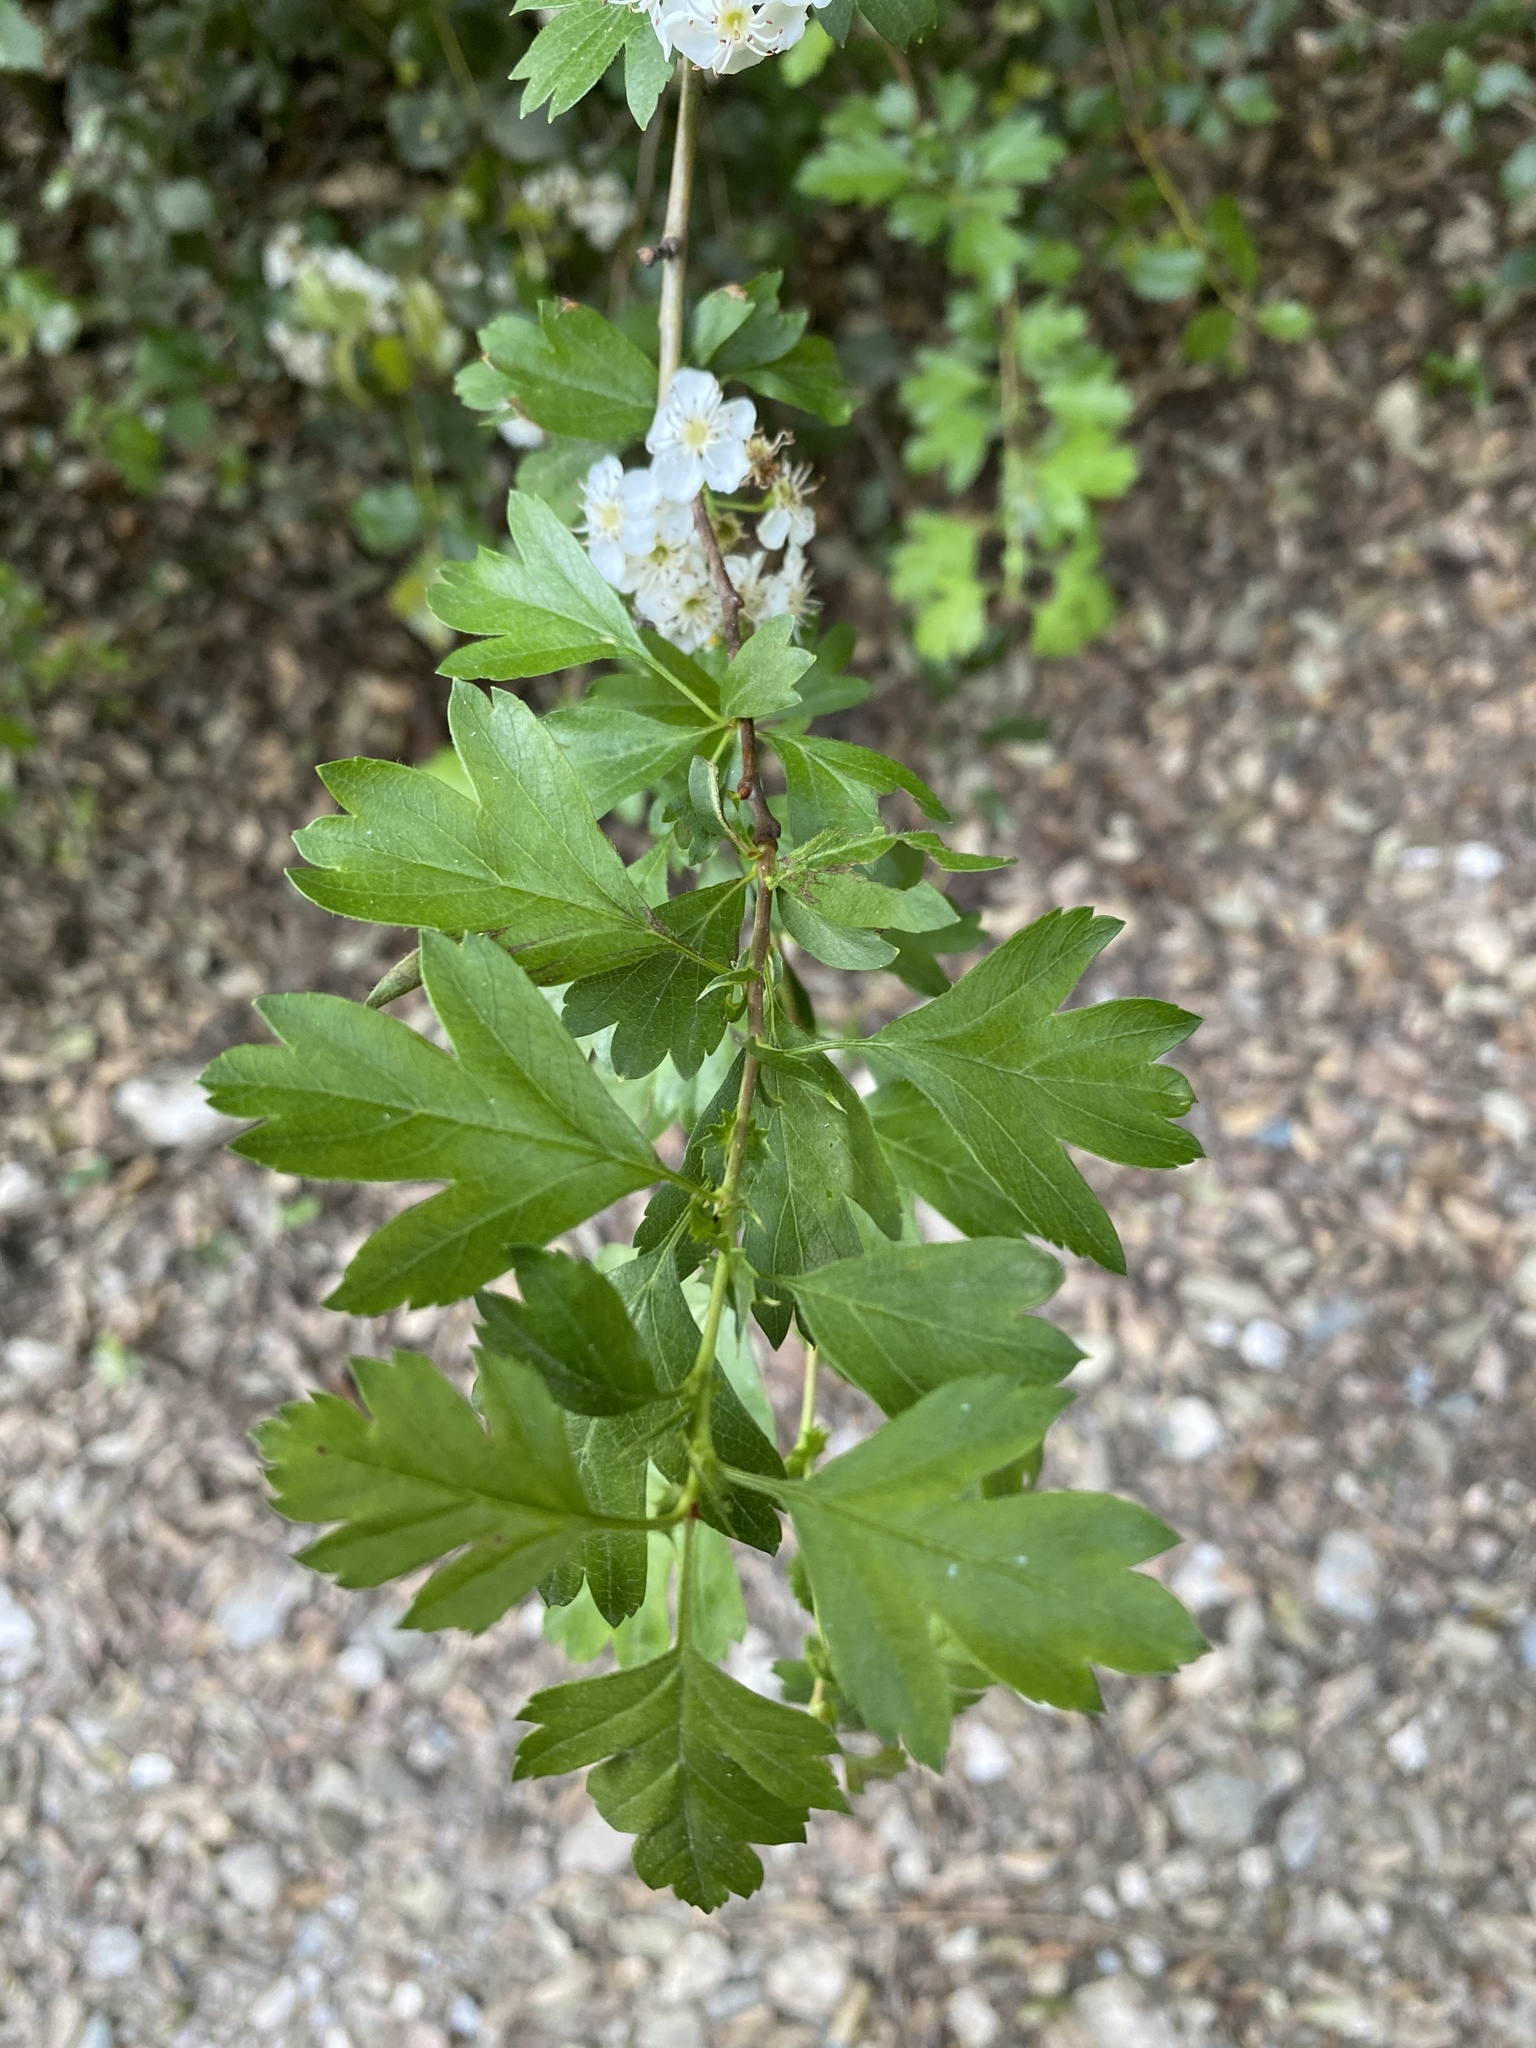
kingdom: Plantae
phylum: Tracheophyta
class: Magnoliopsida
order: Rosales
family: Rosaceae
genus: Crataegus
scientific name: Crataegus monogyna
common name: Hawthorn
